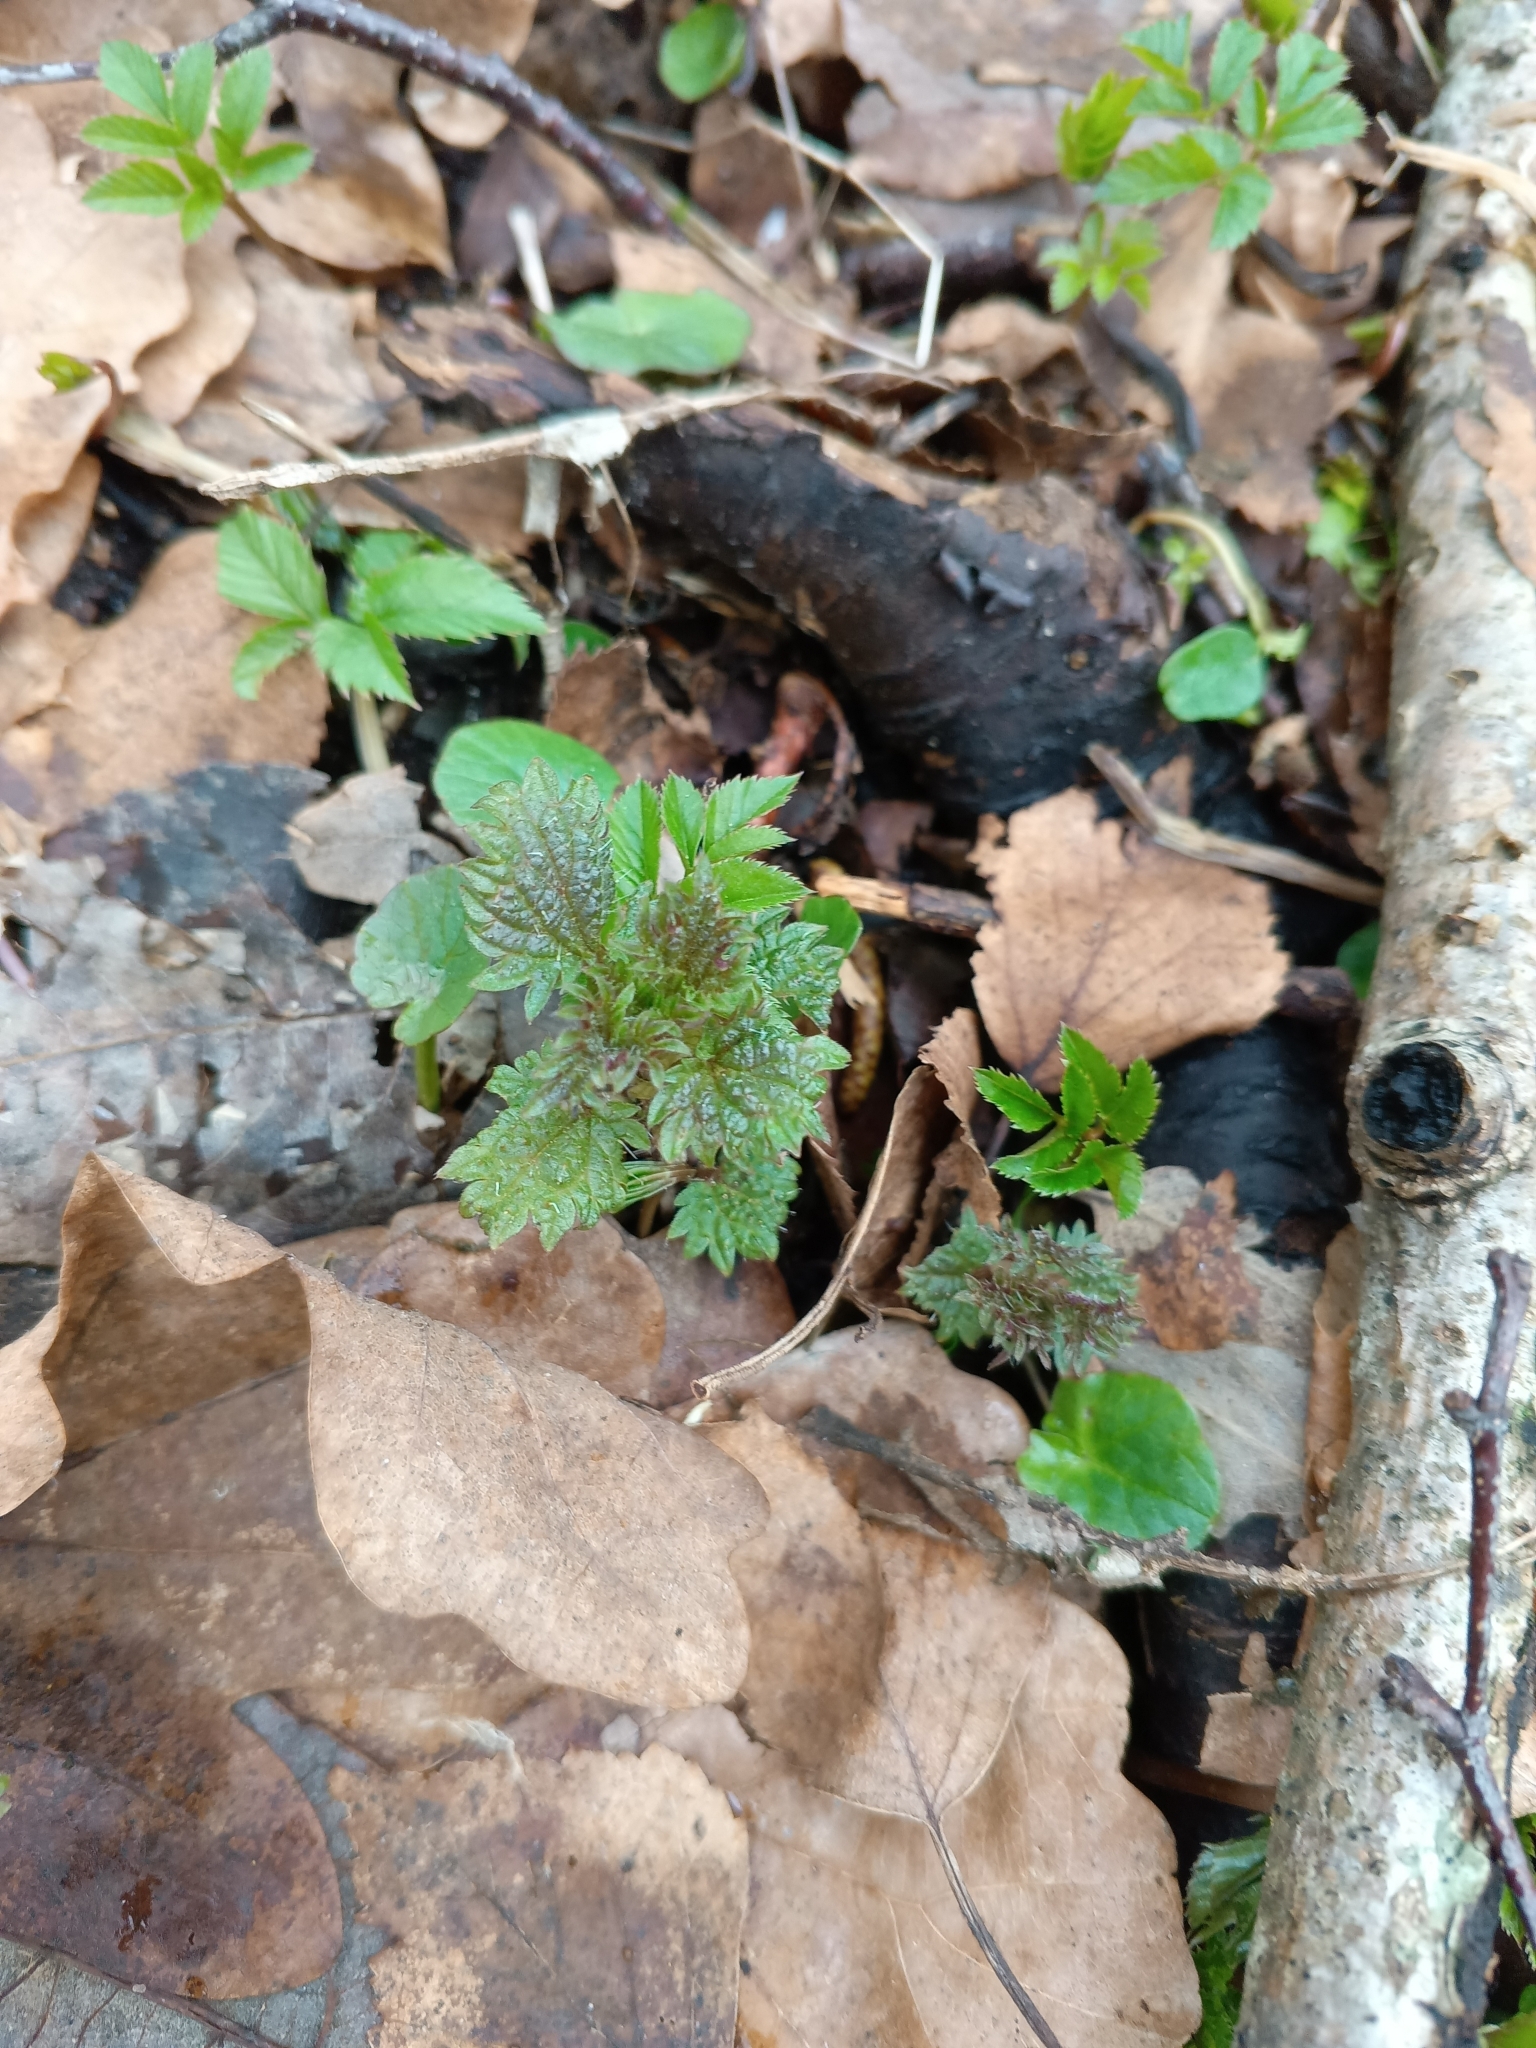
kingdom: Plantae
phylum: Tracheophyta
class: Magnoliopsida
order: Rosales
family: Urticaceae
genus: Urtica
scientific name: Urtica dioica
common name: Common nettle
